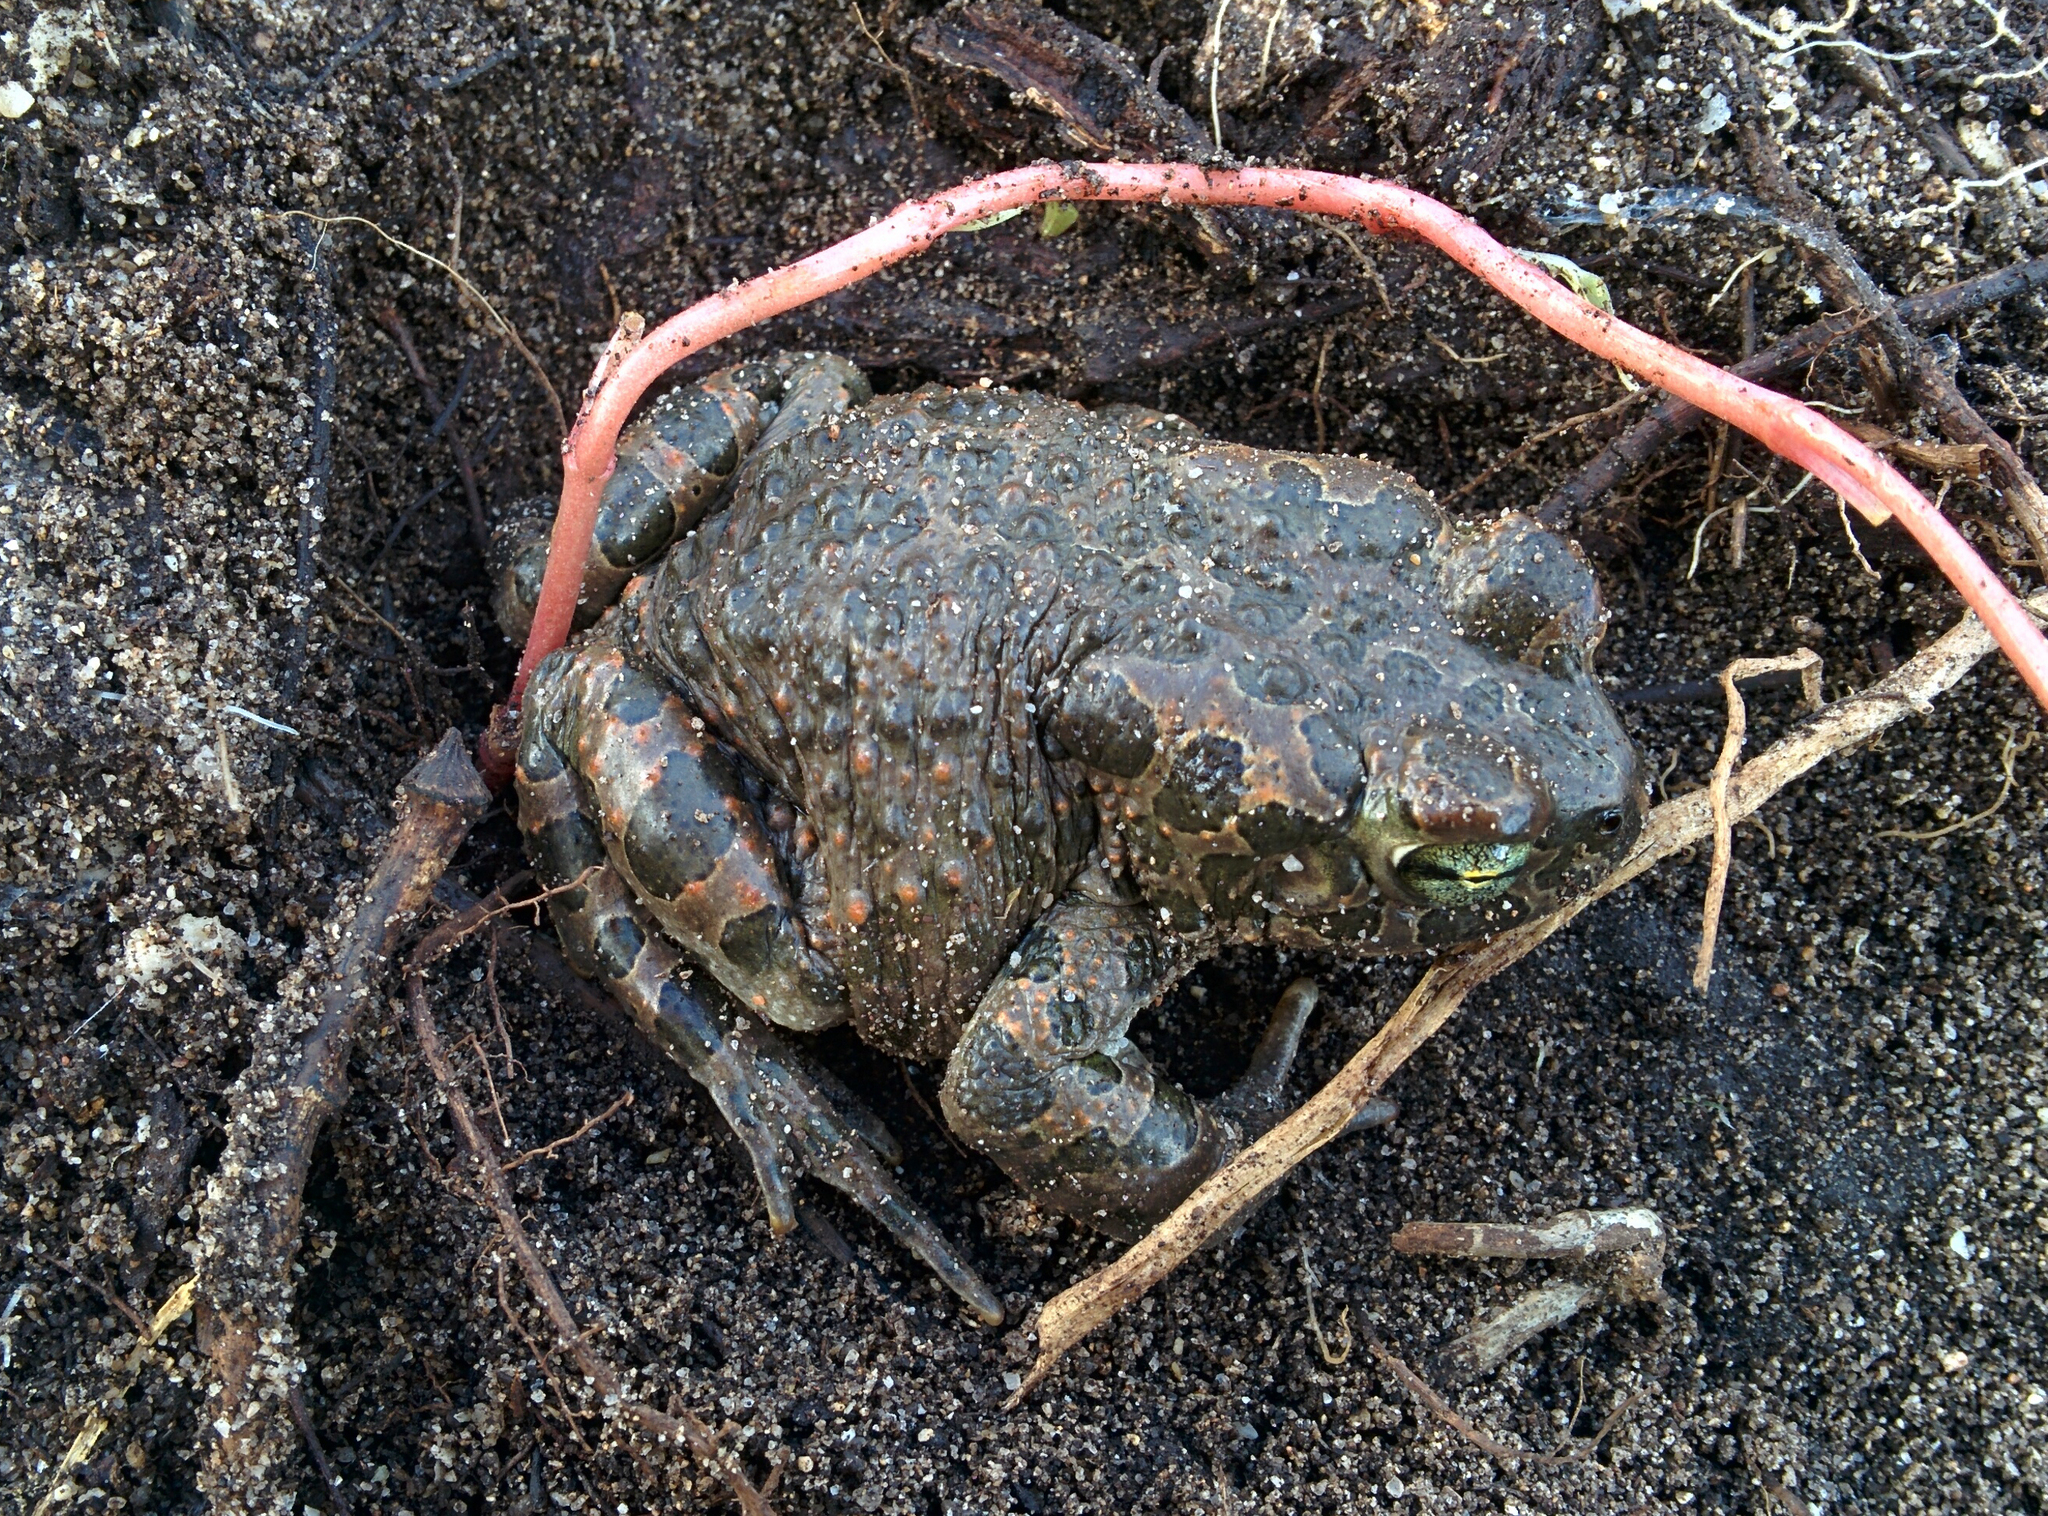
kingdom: Animalia
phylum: Chordata
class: Amphibia
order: Anura
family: Bufonidae
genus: Bufotes
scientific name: Bufotes viridis
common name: European green toad
